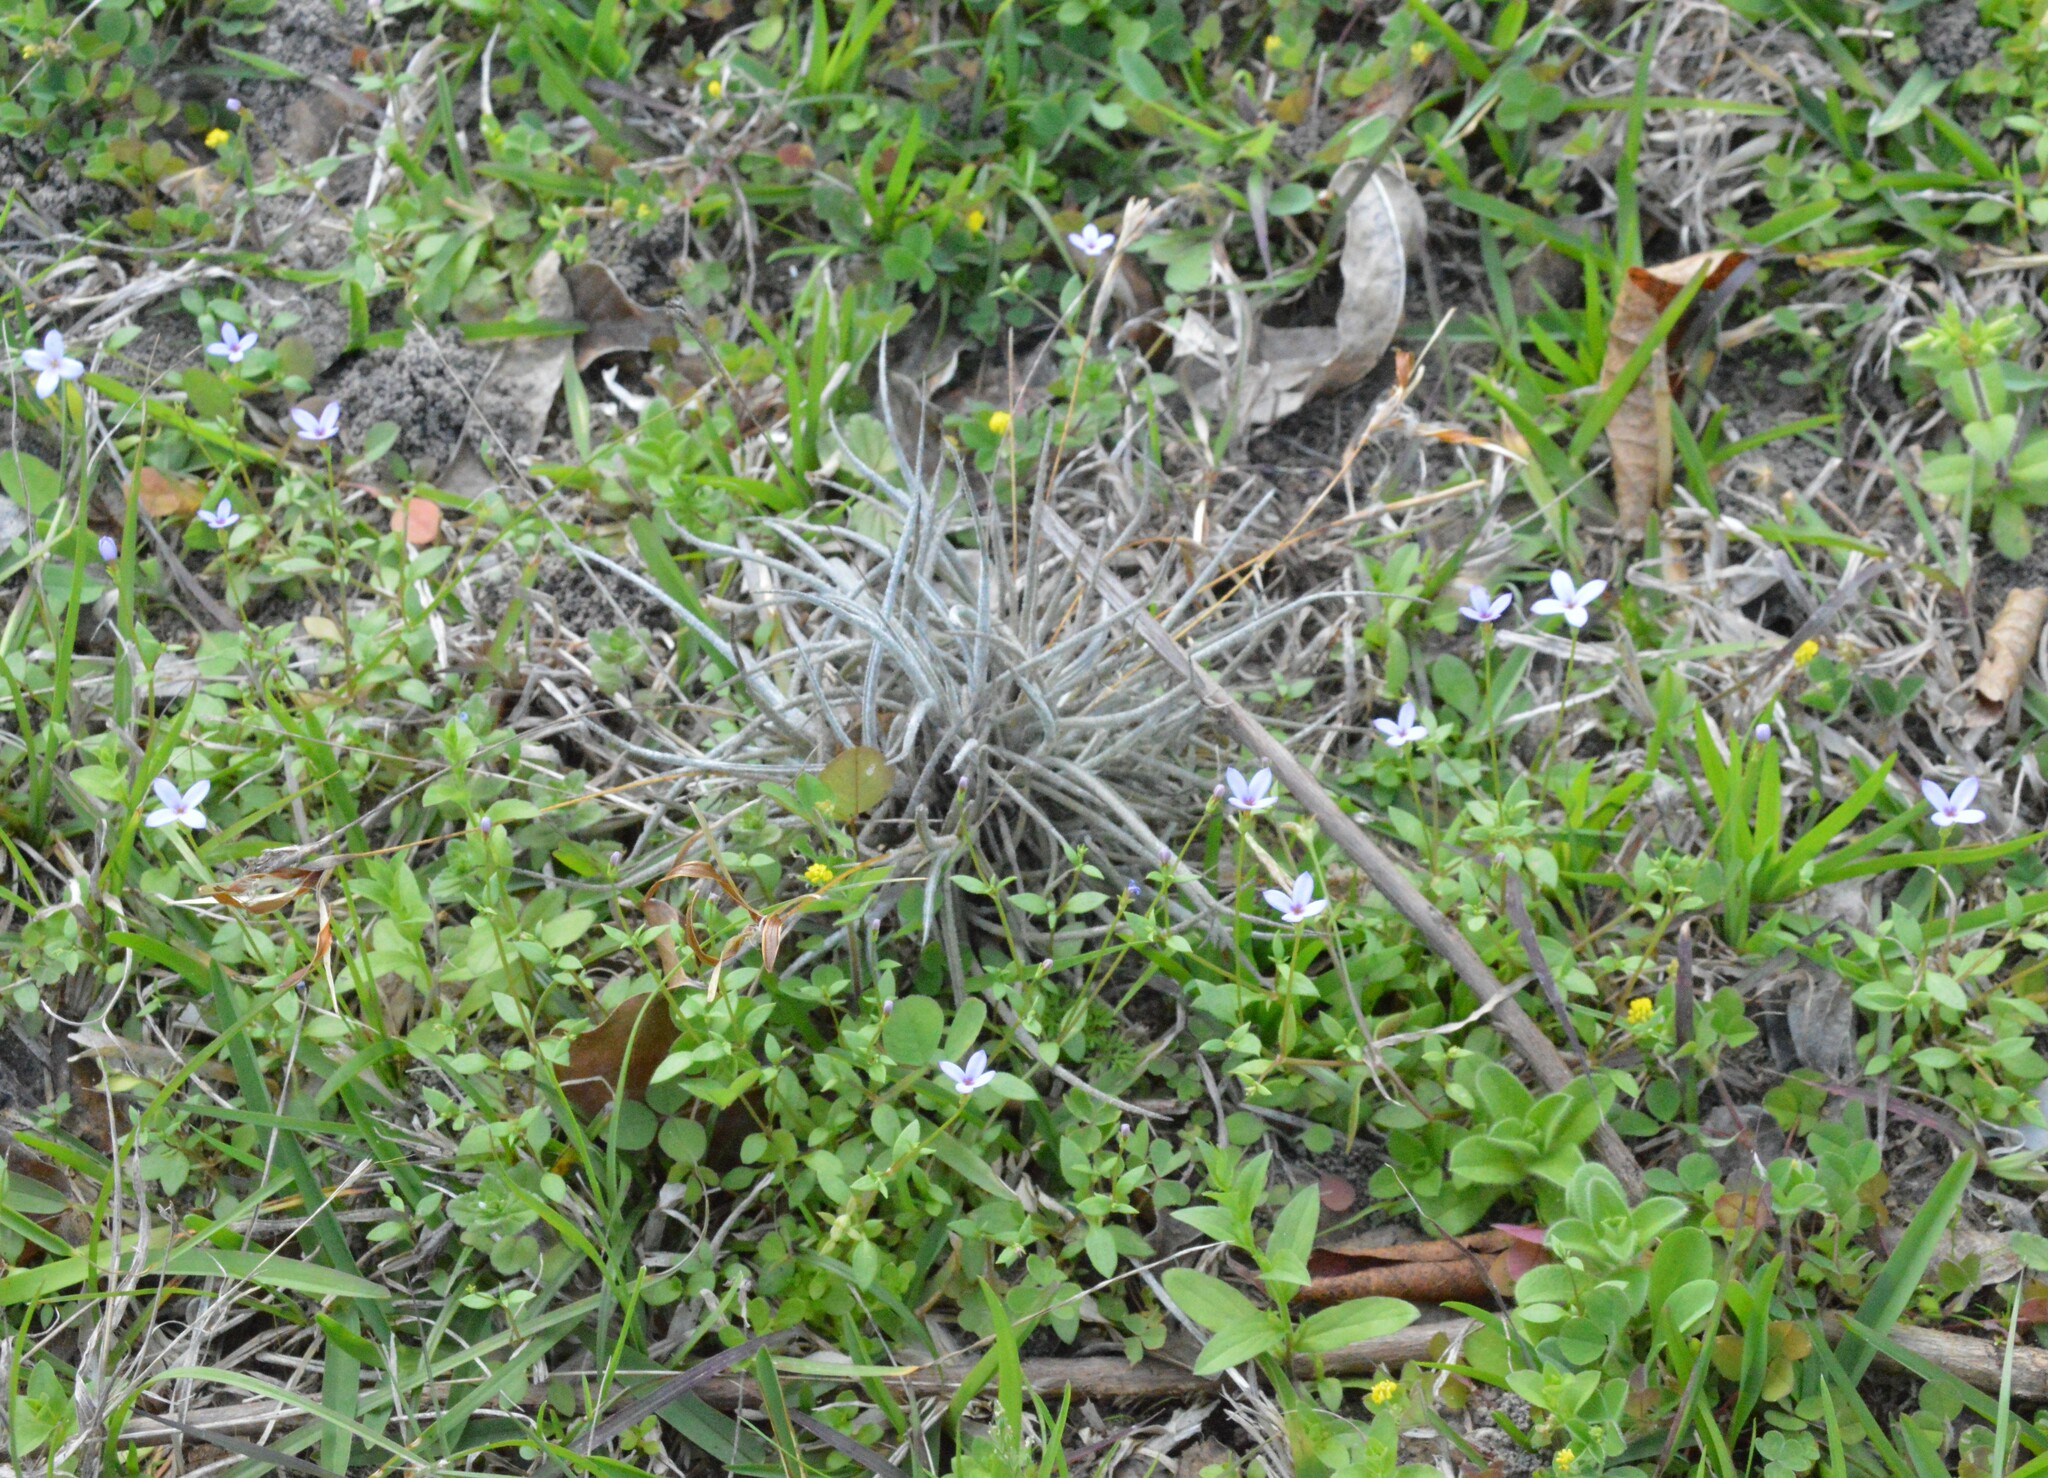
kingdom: Plantae
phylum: Tracheophyta
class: Magnoliopsida
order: Gentianales
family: Rubiaceae
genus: Houstonia
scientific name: Houstonia pusilla
